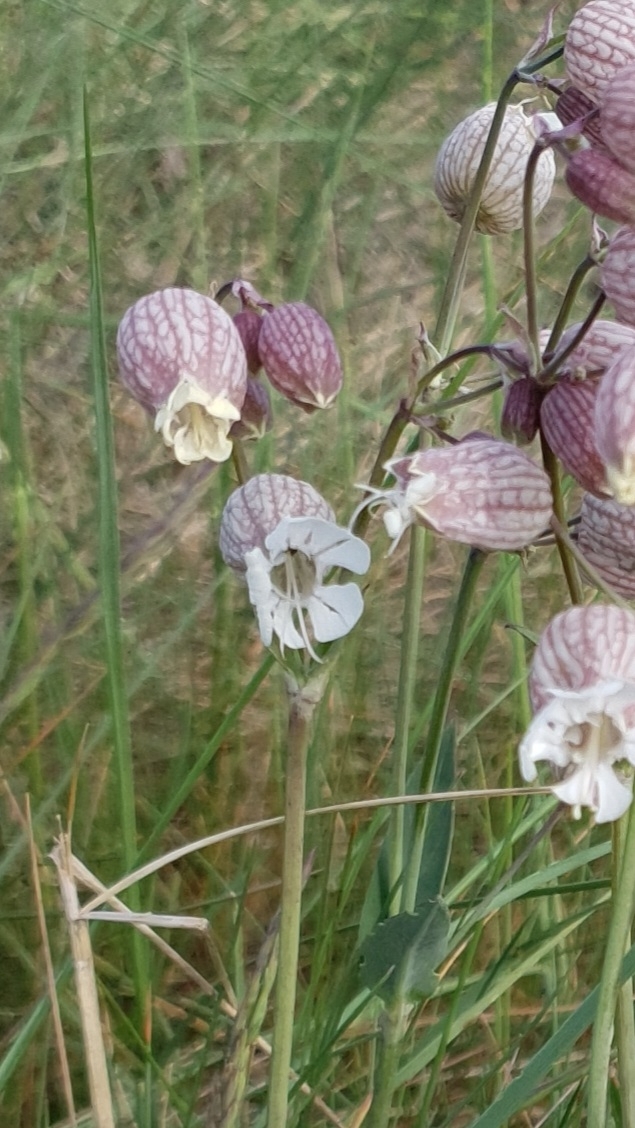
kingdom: Plantae
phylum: Tracheophyta
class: Magnoliopsida
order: Caryophyllales
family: Caryophyllaceae
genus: Silene
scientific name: Silene vulgaris
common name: Bladder campion
